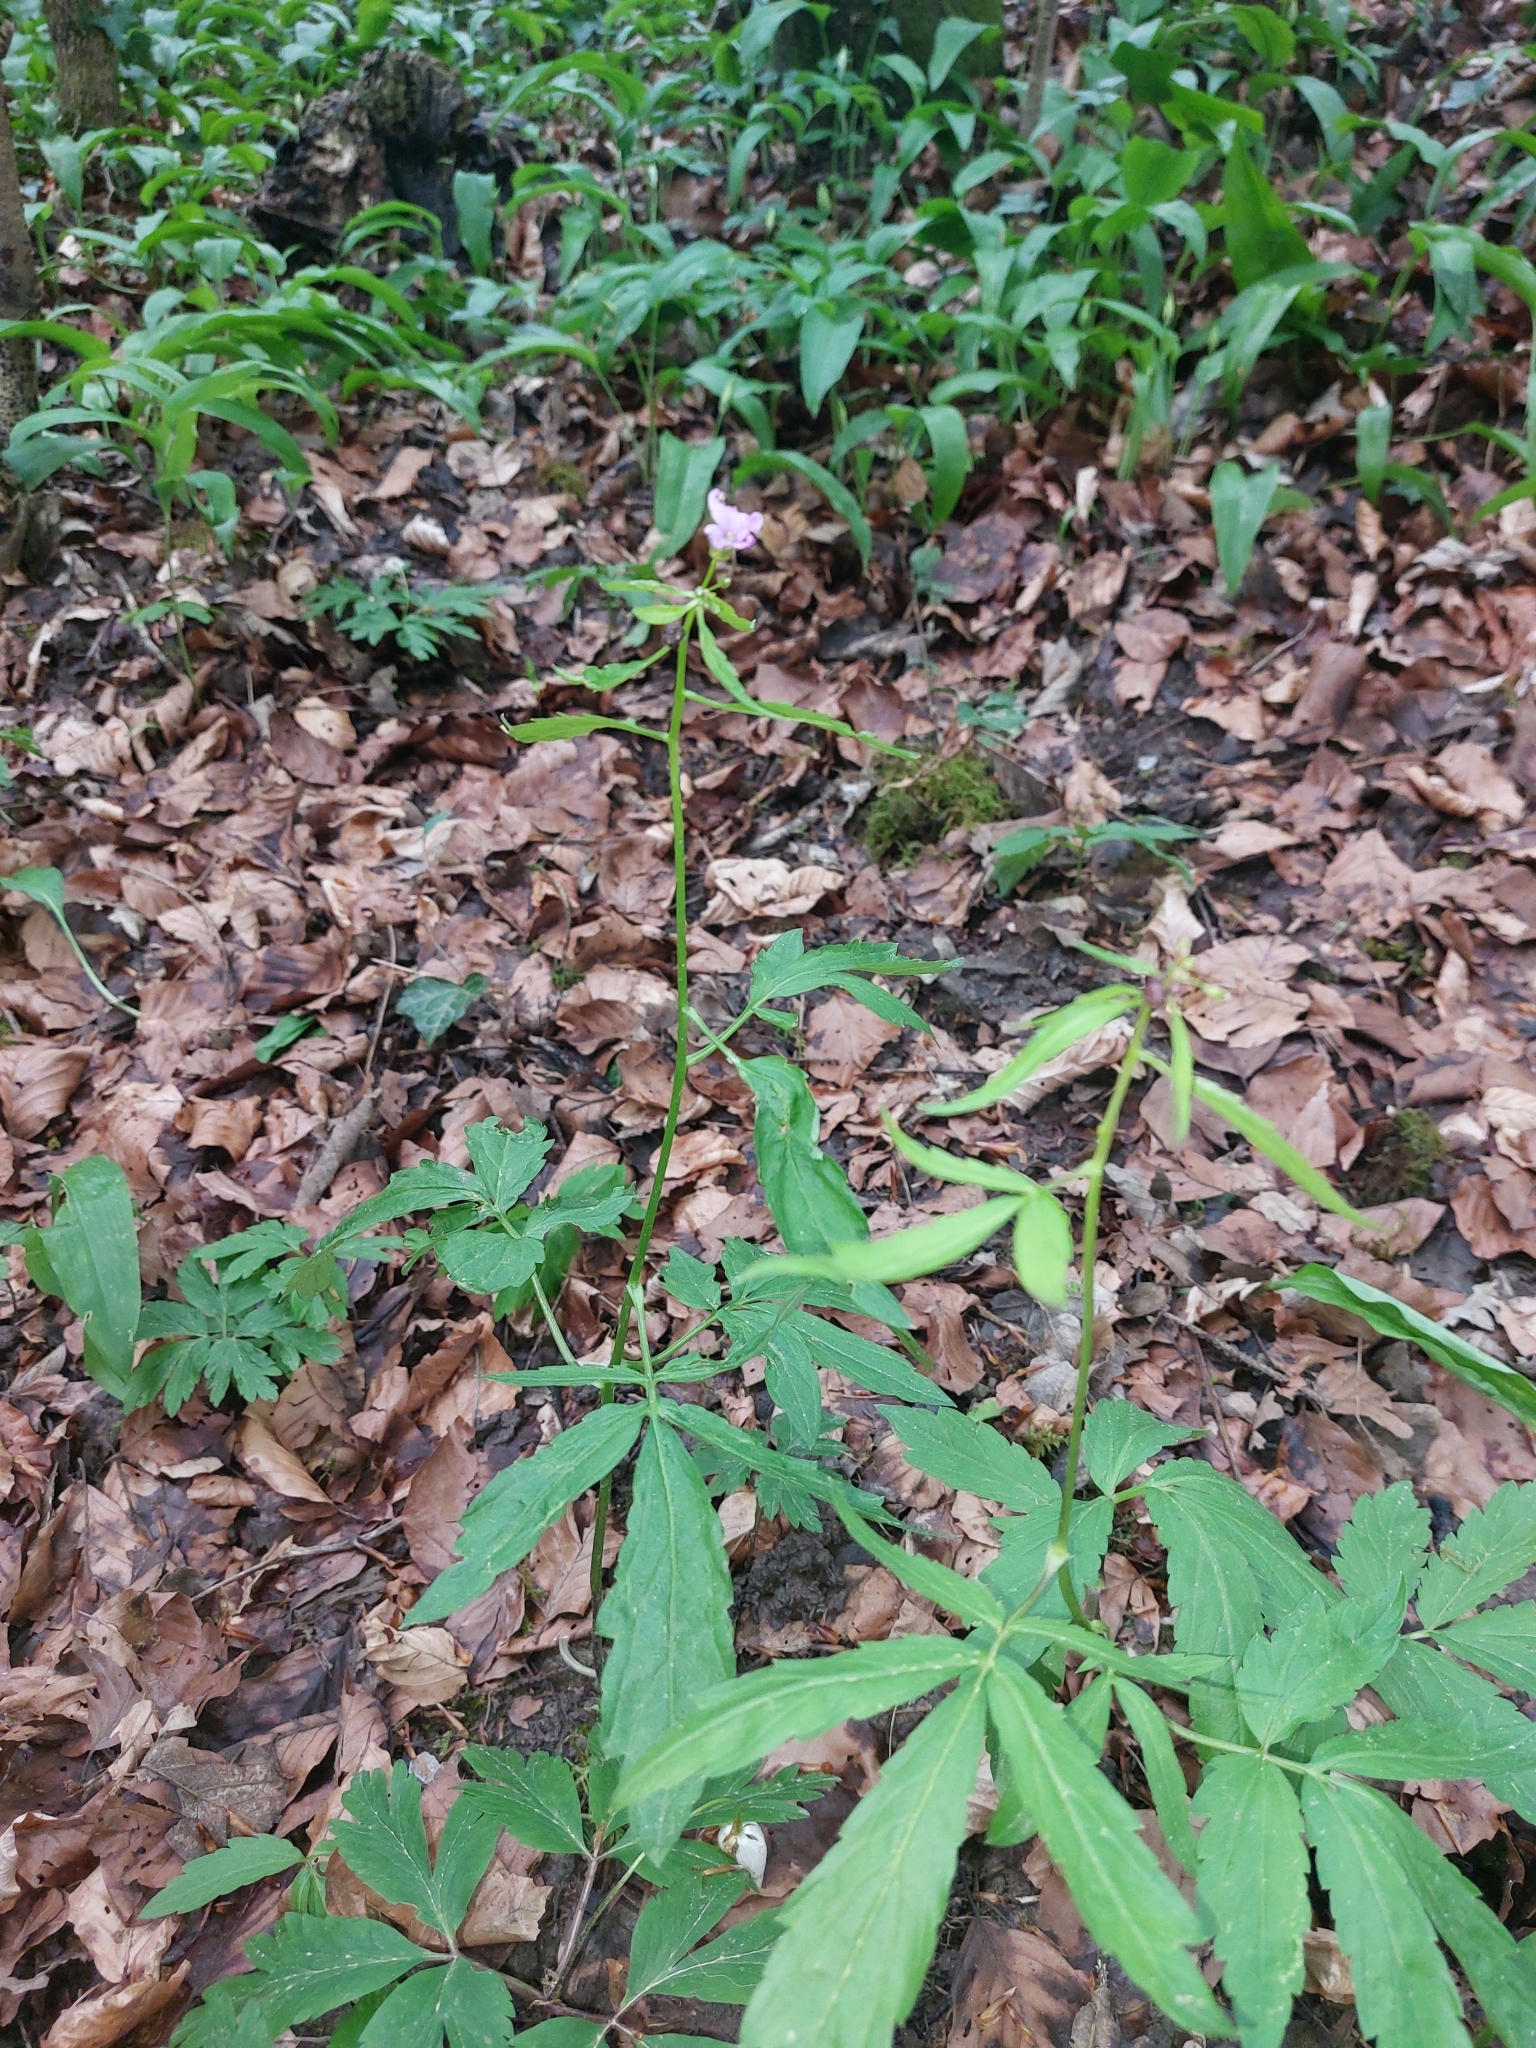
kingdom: Plantae
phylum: Tracheophyta
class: Magnoliopsida
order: Brassicales
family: Brassicaceae
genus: Cardamine
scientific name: Cardamine bulbifera
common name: Coralroot bittercress
